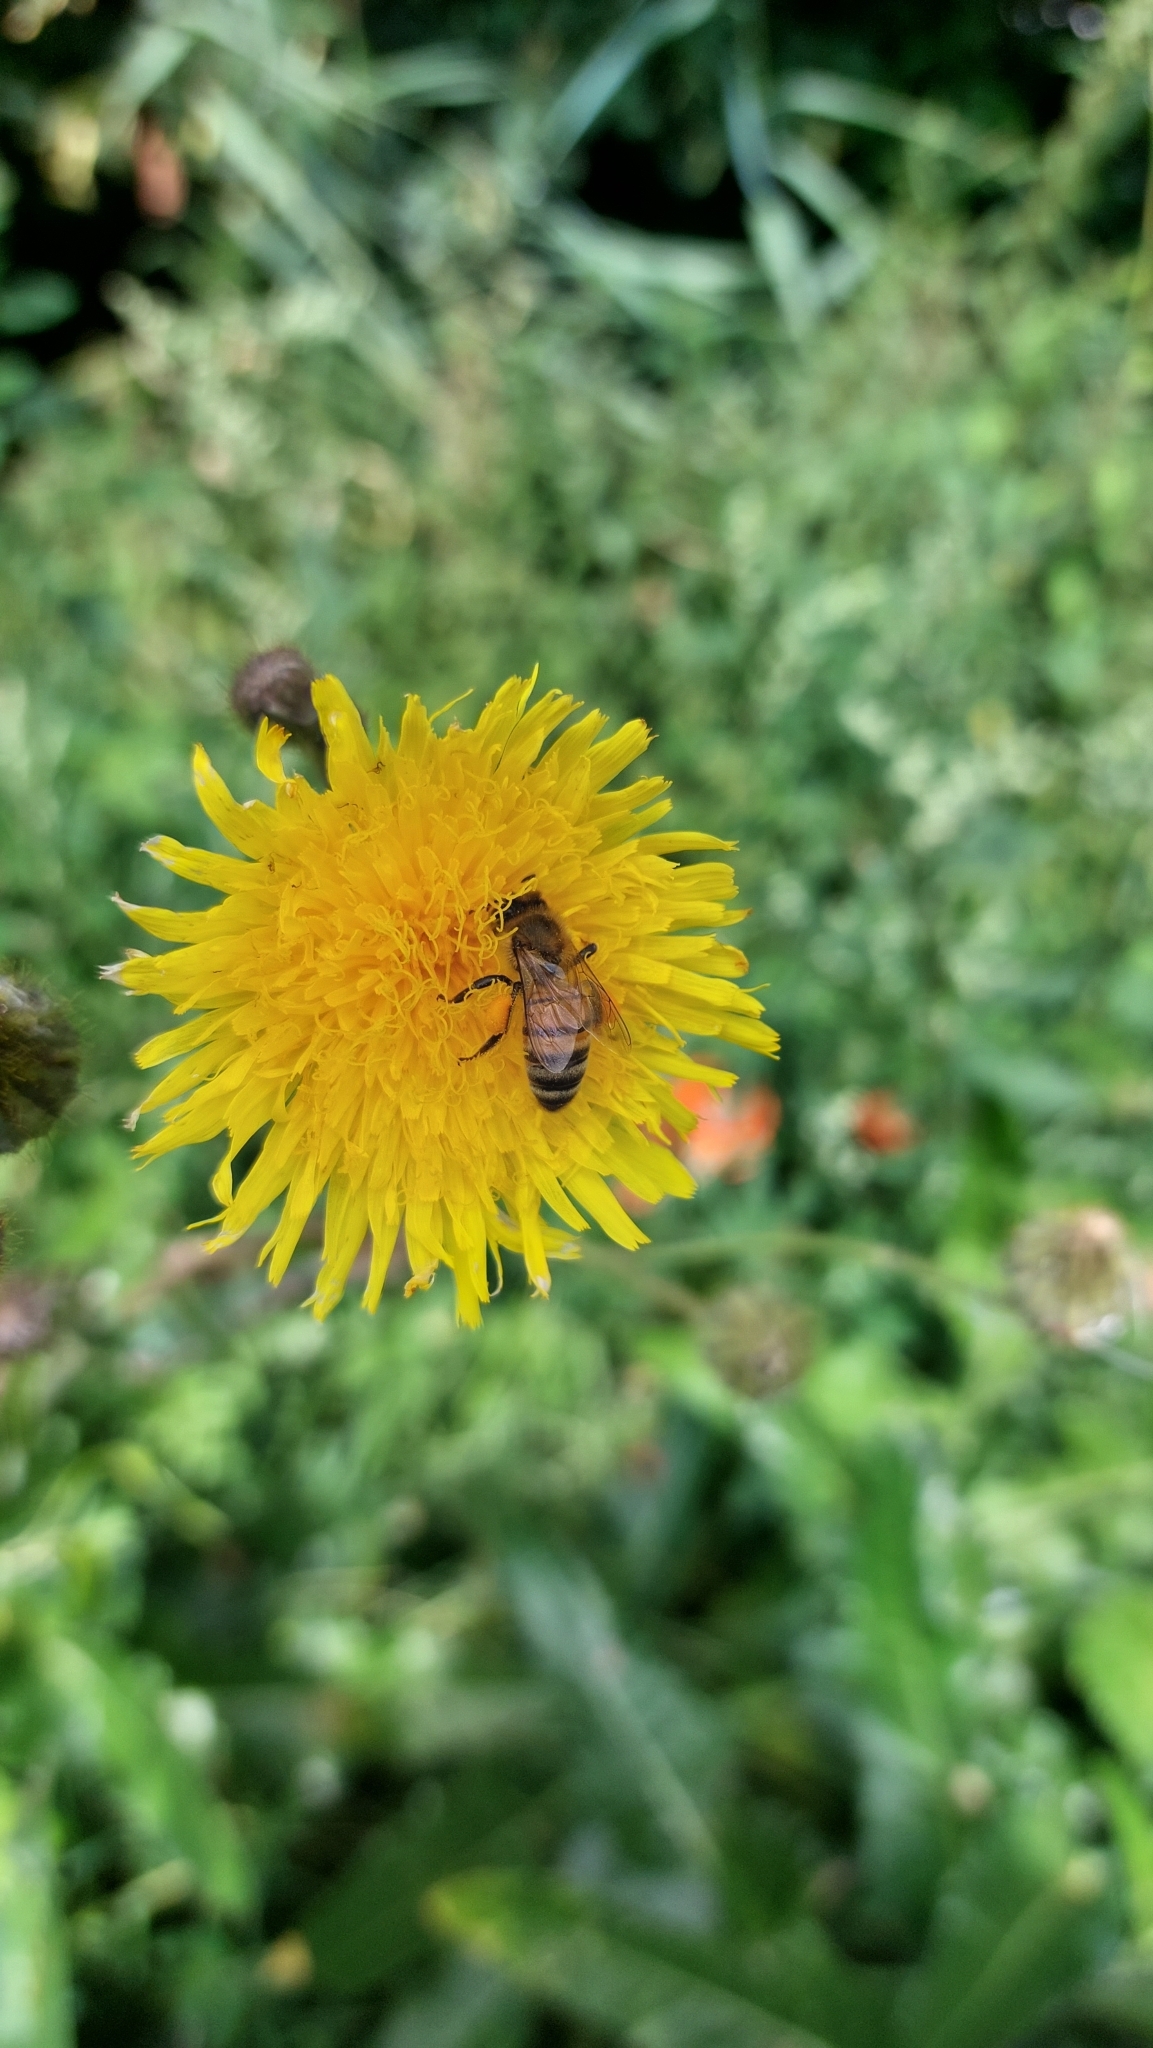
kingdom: Animalia
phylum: Arthropoda
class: Insecta
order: Hymenoptera
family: Apidae
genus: Apis
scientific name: Apis mellifera
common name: Honey bee
